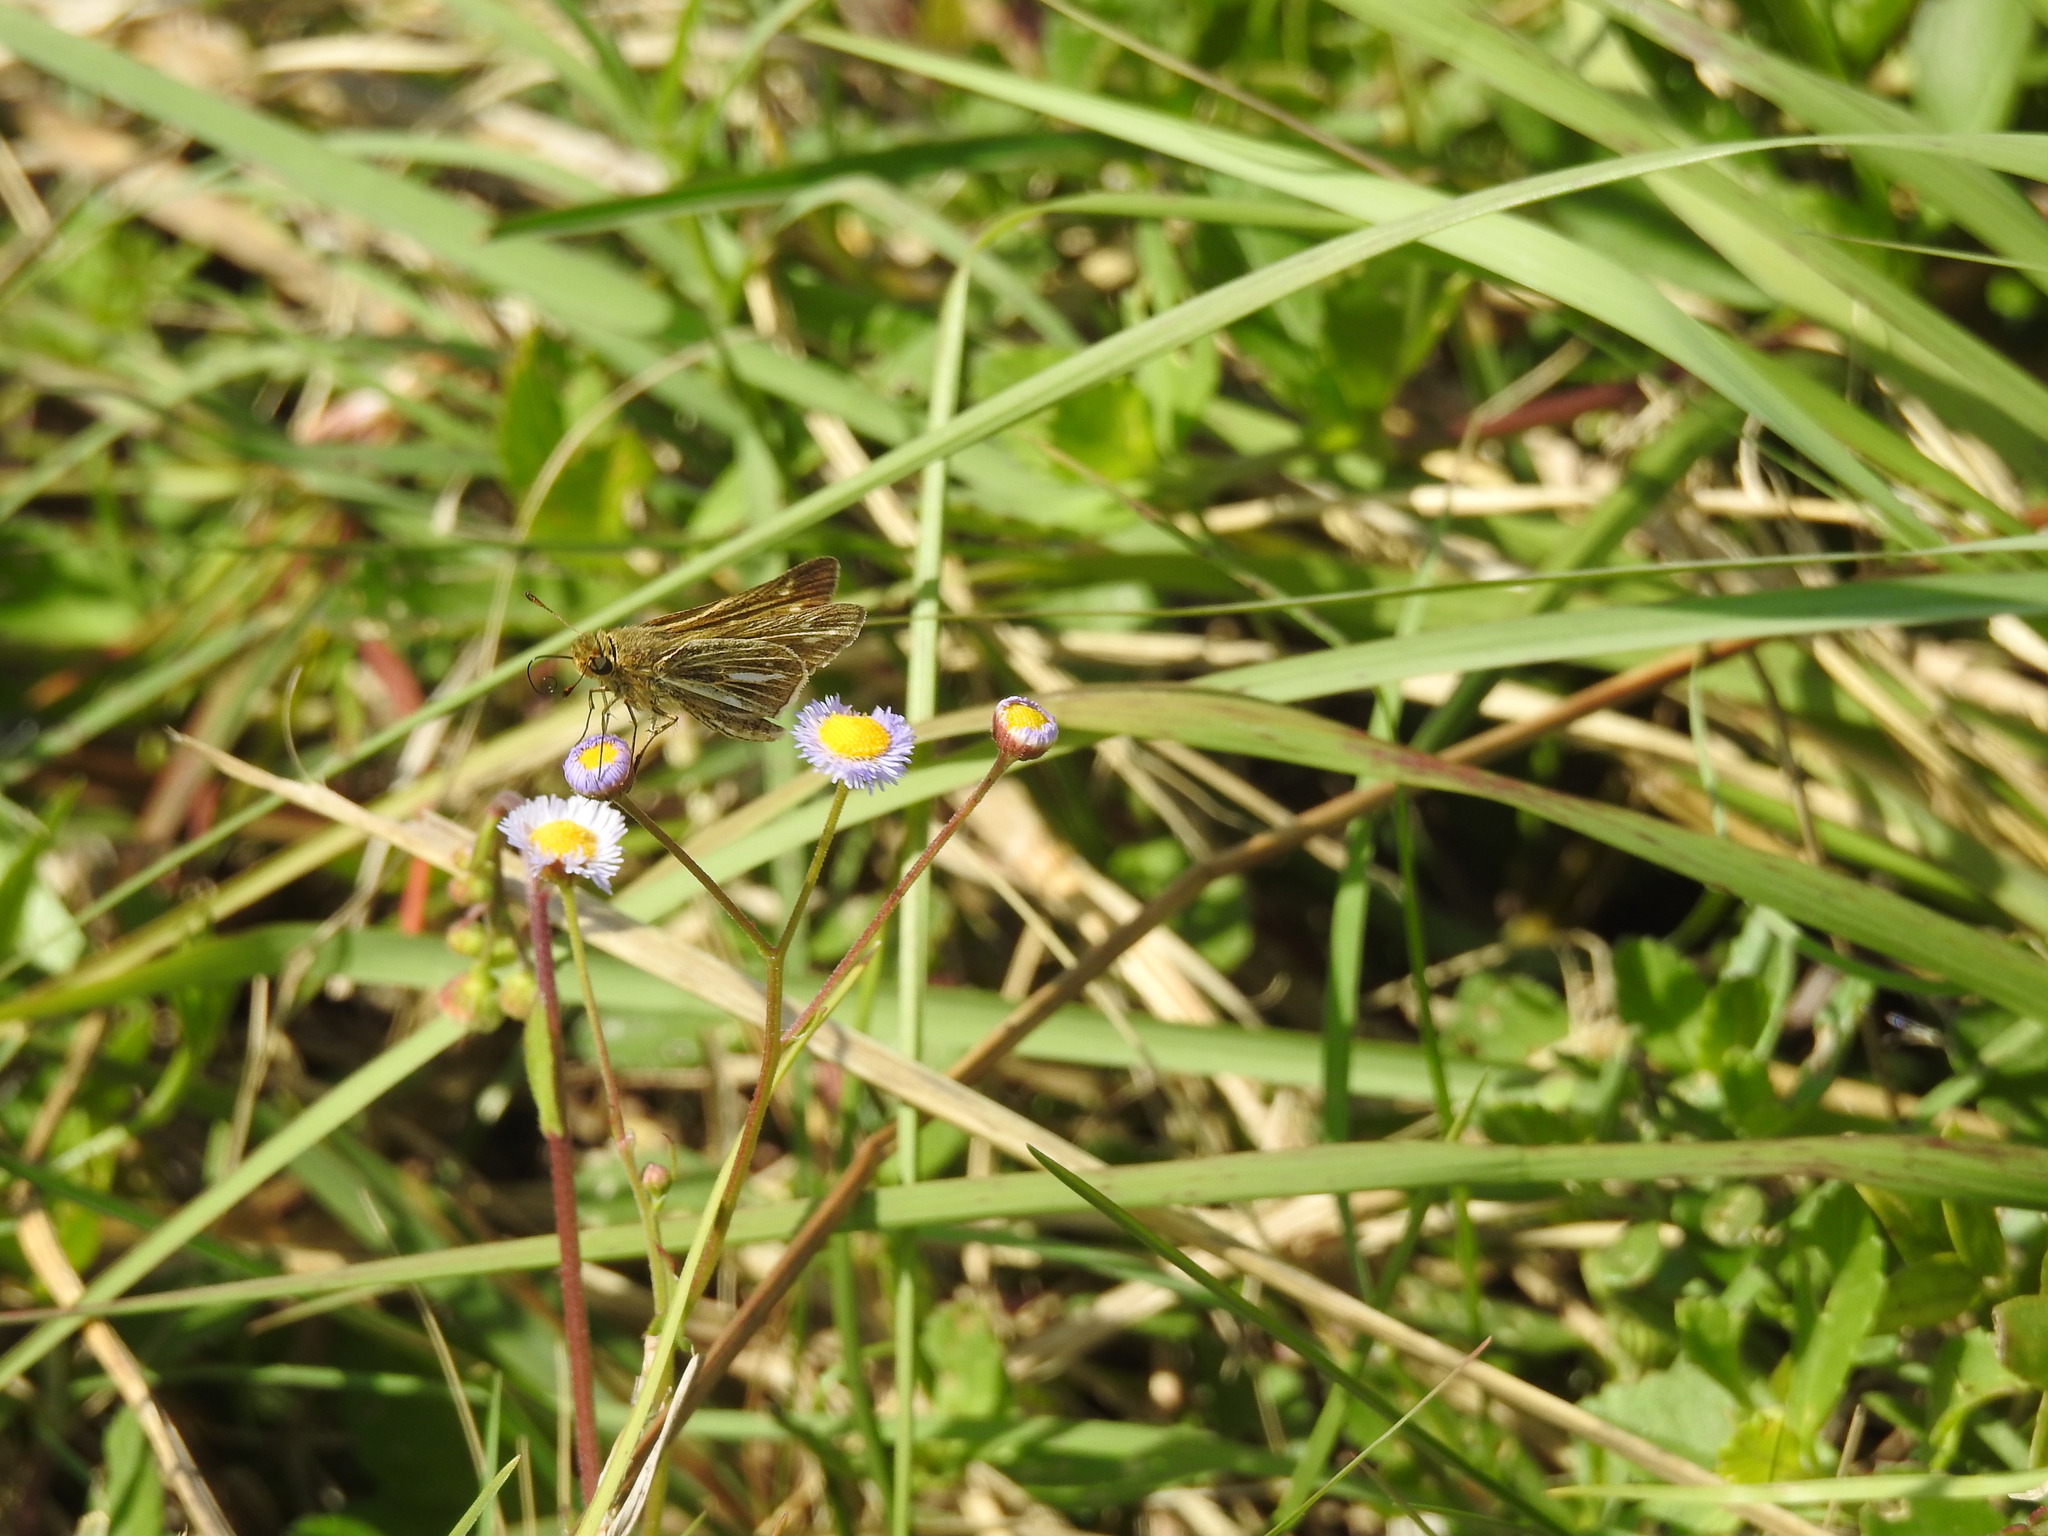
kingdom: Animalia
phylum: Arthropoda
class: Insecta
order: Lepidoptera
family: Hesperiidae
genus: Panoquina
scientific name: Panoquina panoquin
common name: Salt marsh skipper
